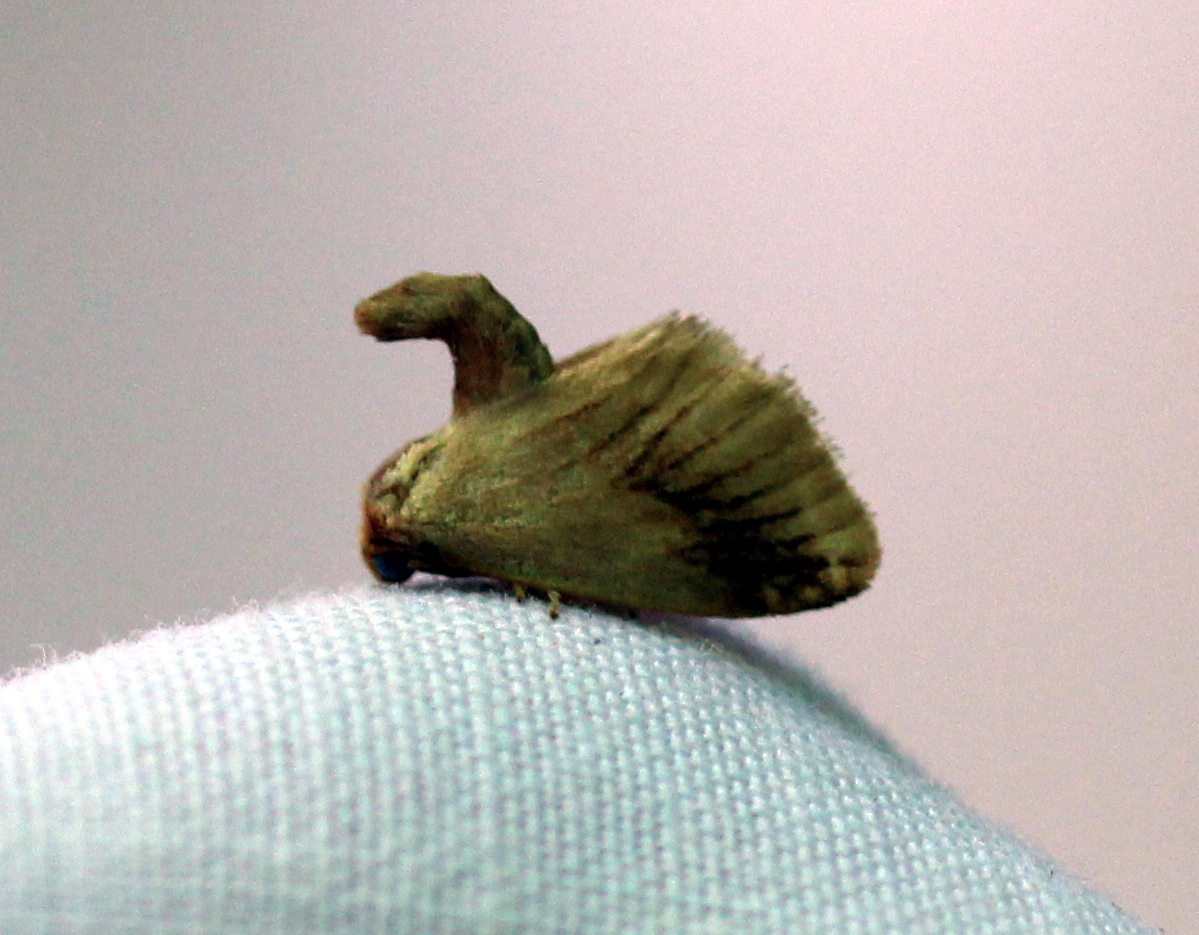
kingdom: Animalia
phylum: Arthropoda
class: Insecta
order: Lepidoptera
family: Limacodidae
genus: Tortricidia
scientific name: Tortricidia testacea
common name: Early button slug moth
